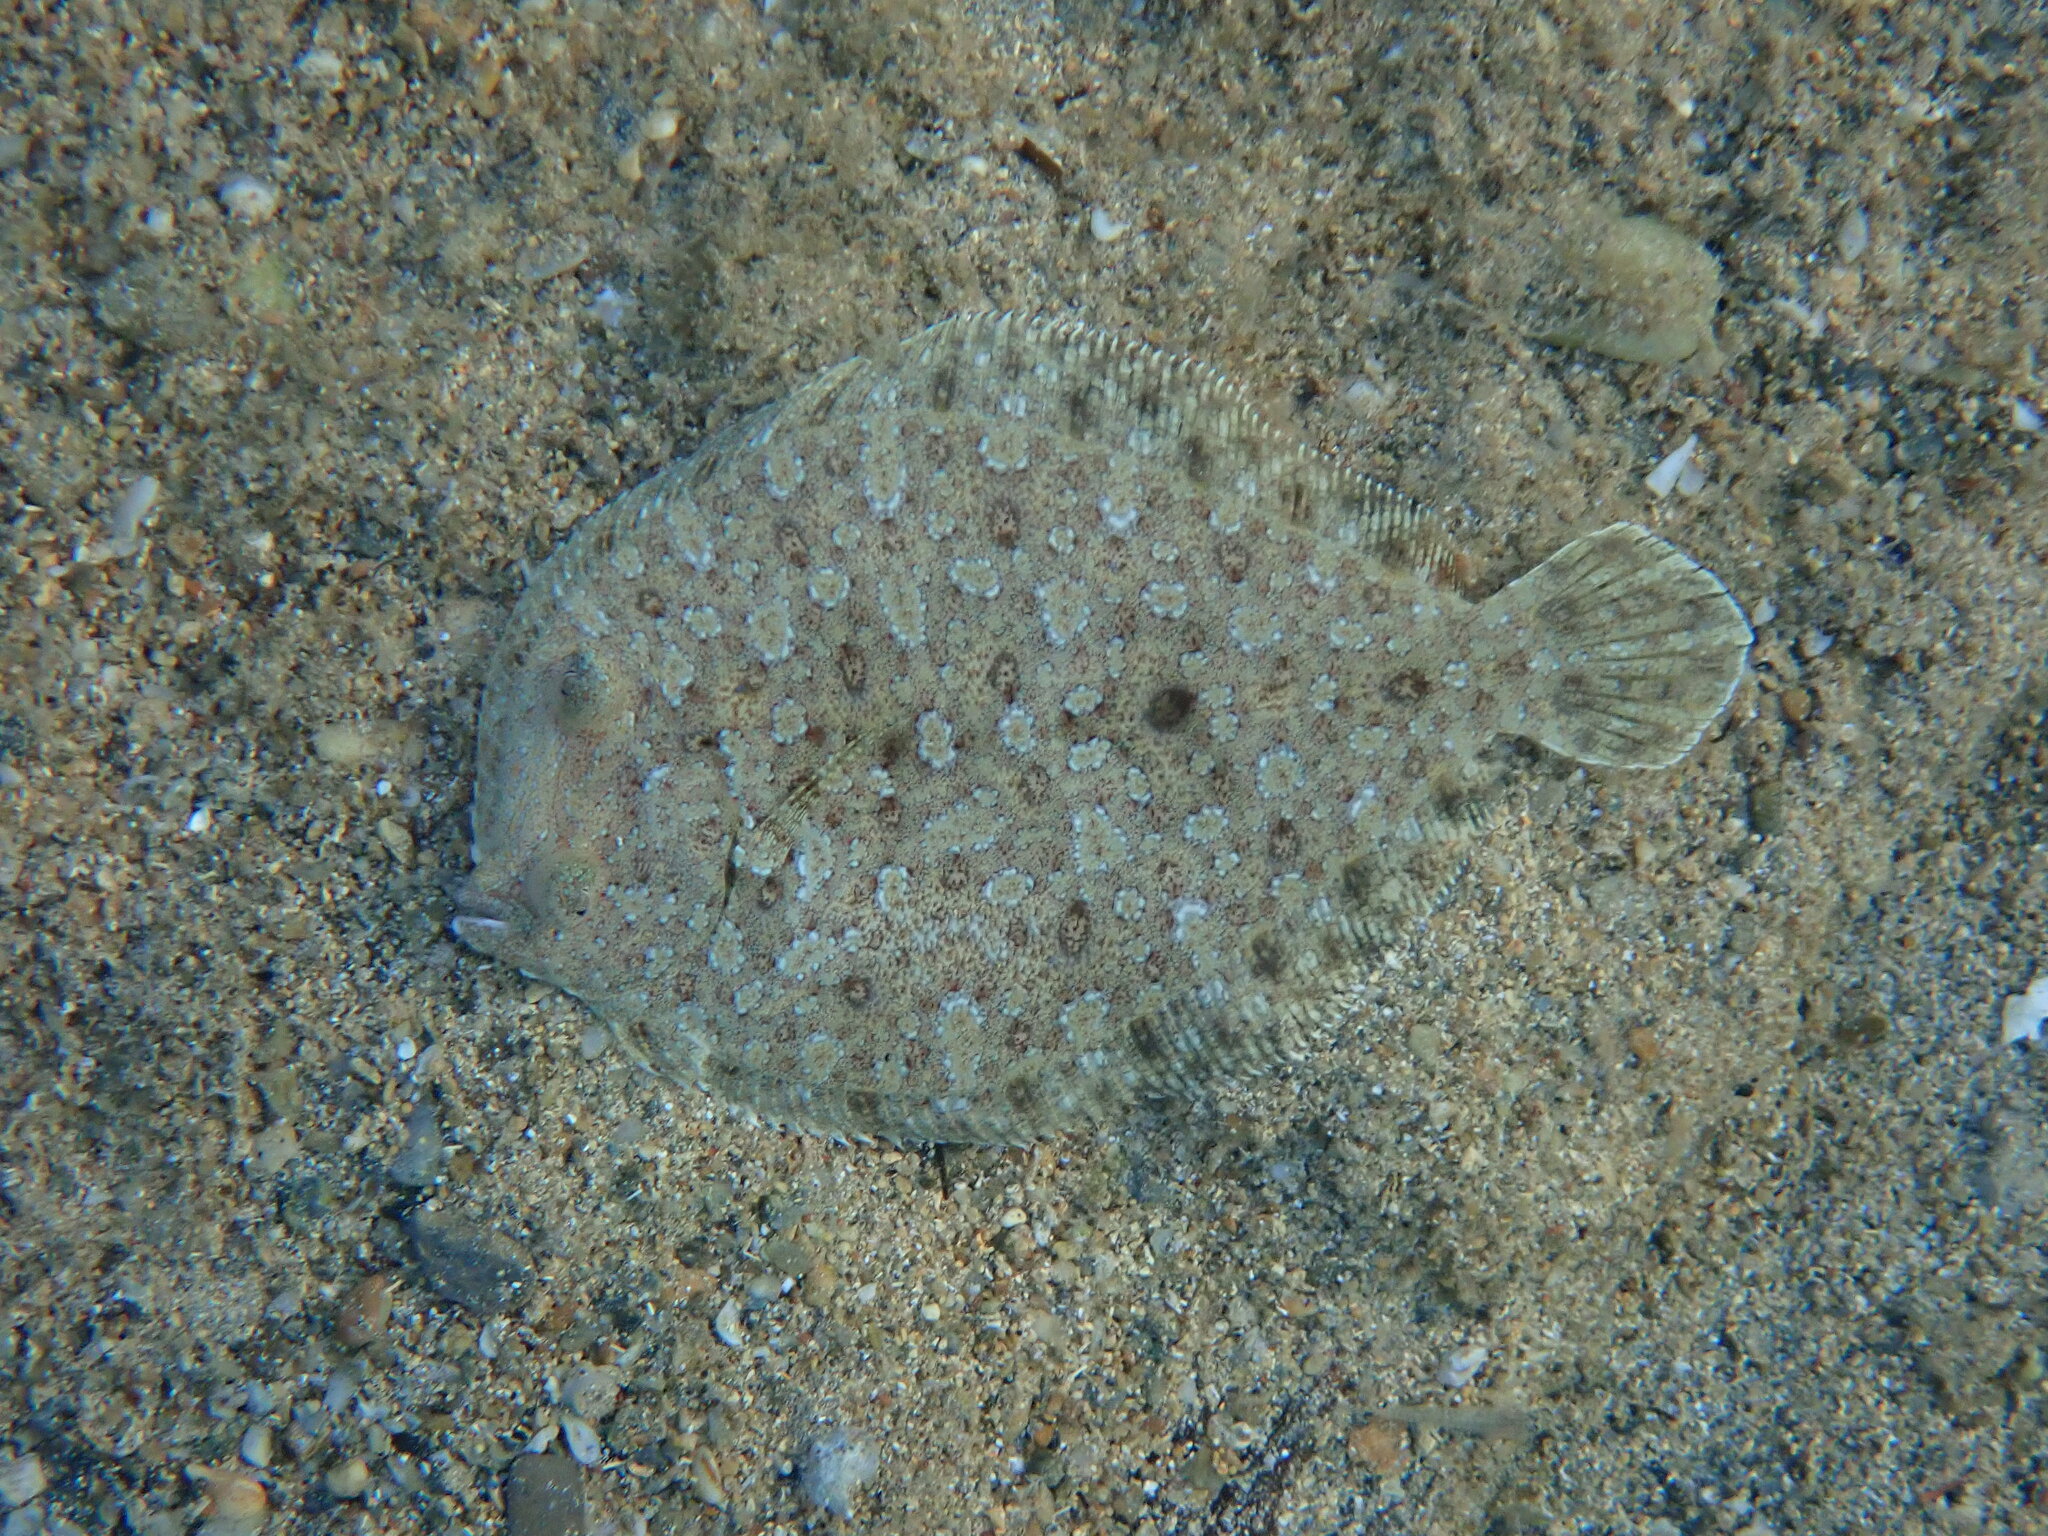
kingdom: Animalia
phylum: Chordata
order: Pleuronectiformes
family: Bothidae
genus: Bothus
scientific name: Bothus podas
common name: Wide-eyed flounder
